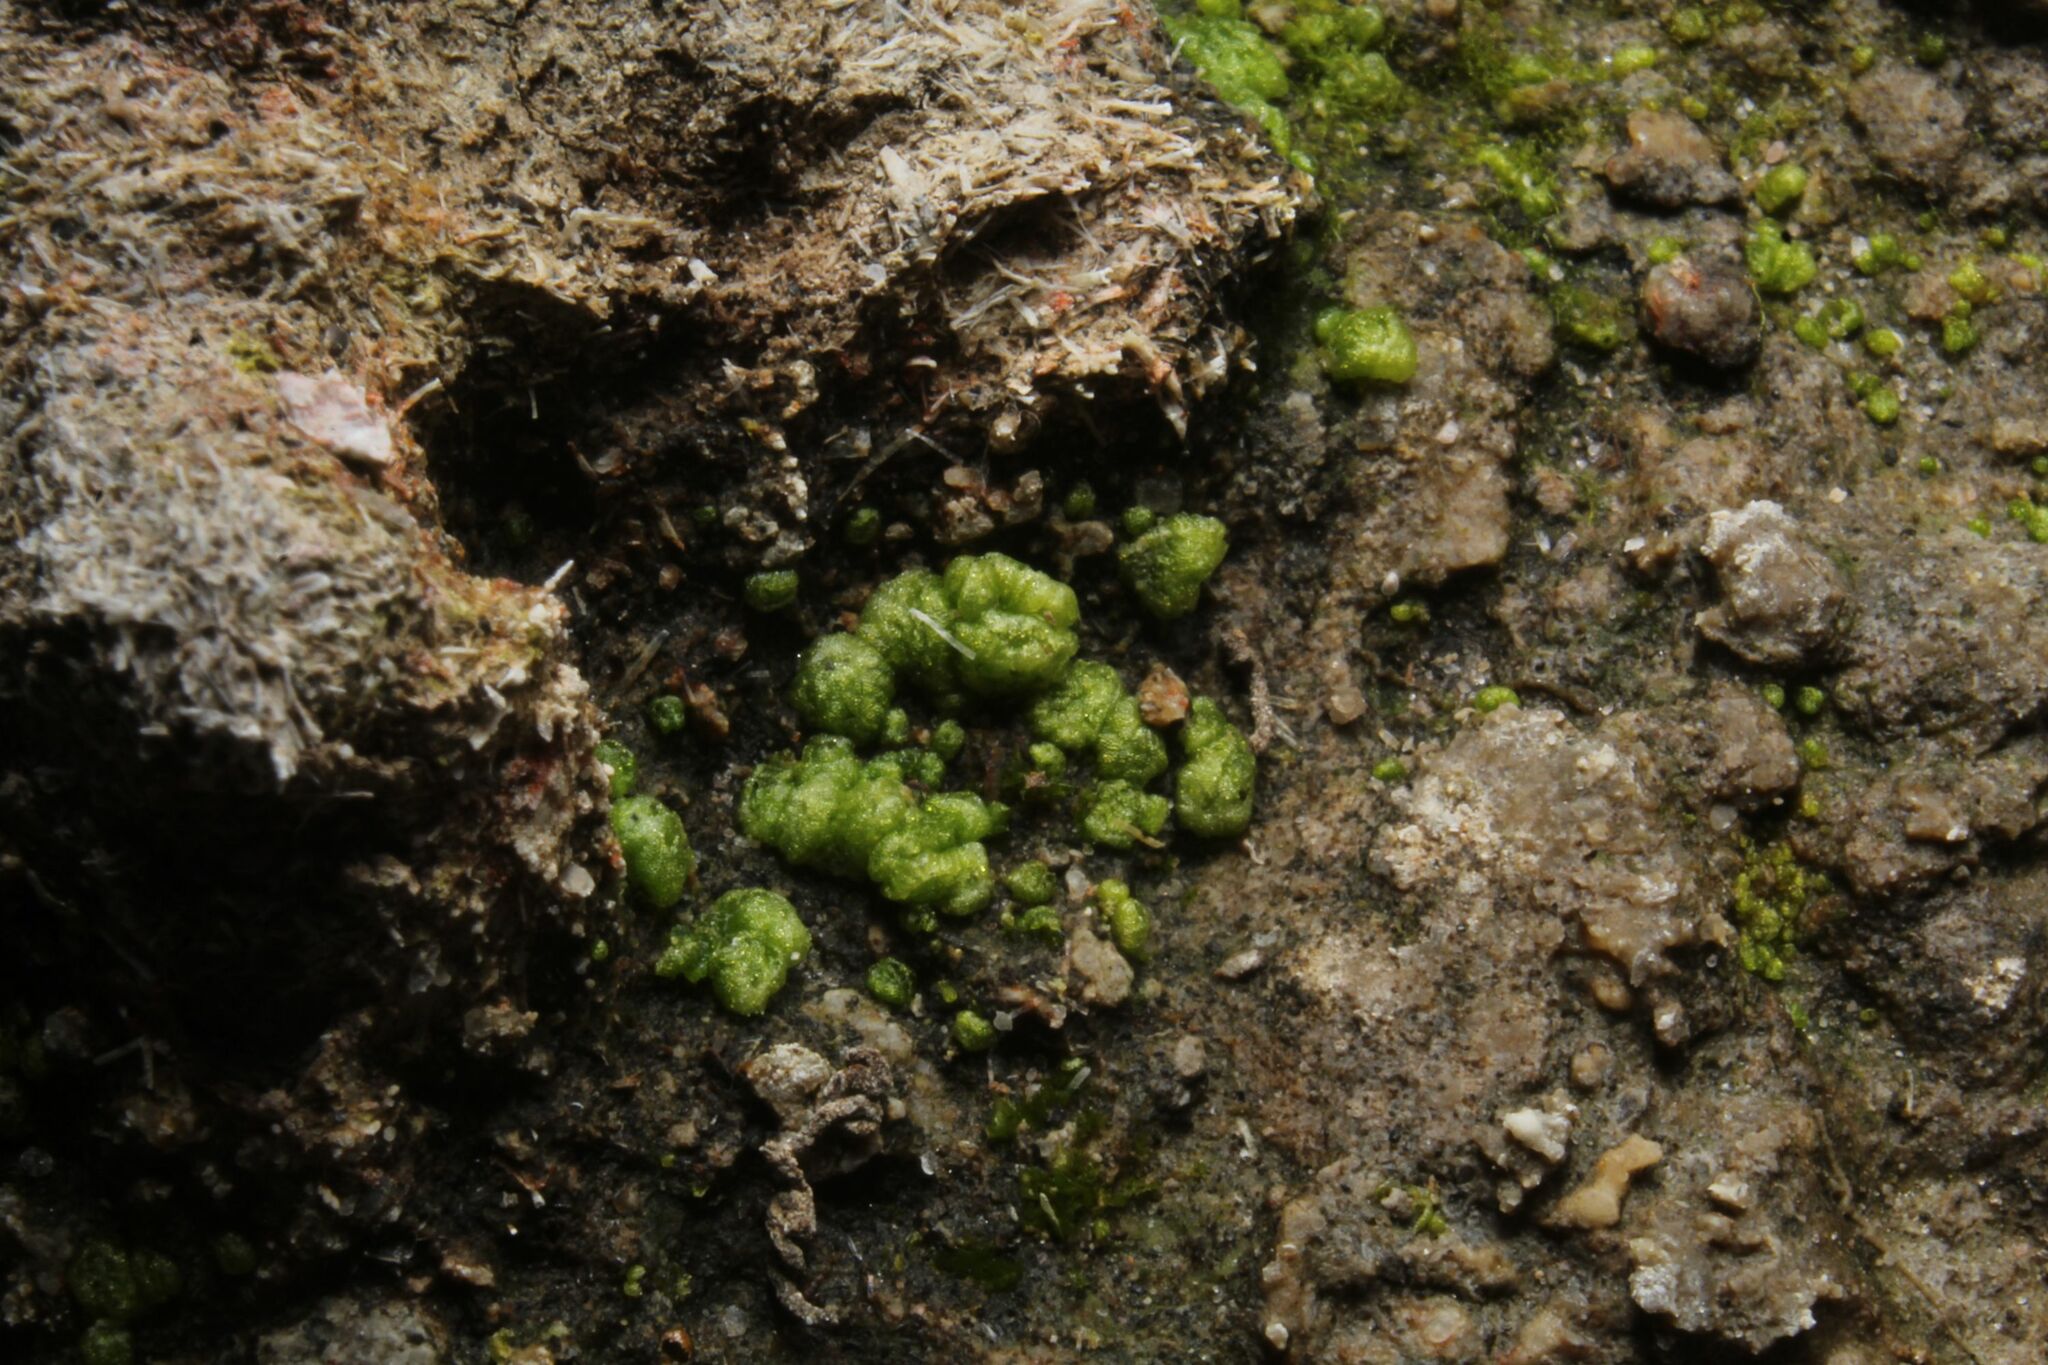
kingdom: Plantae
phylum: Marchantiophyta
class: Marchantiopsida
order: Sphaerocarpales
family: Monocarpaceae
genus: Monocarpus
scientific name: Monocarpus sphaerocarpus
